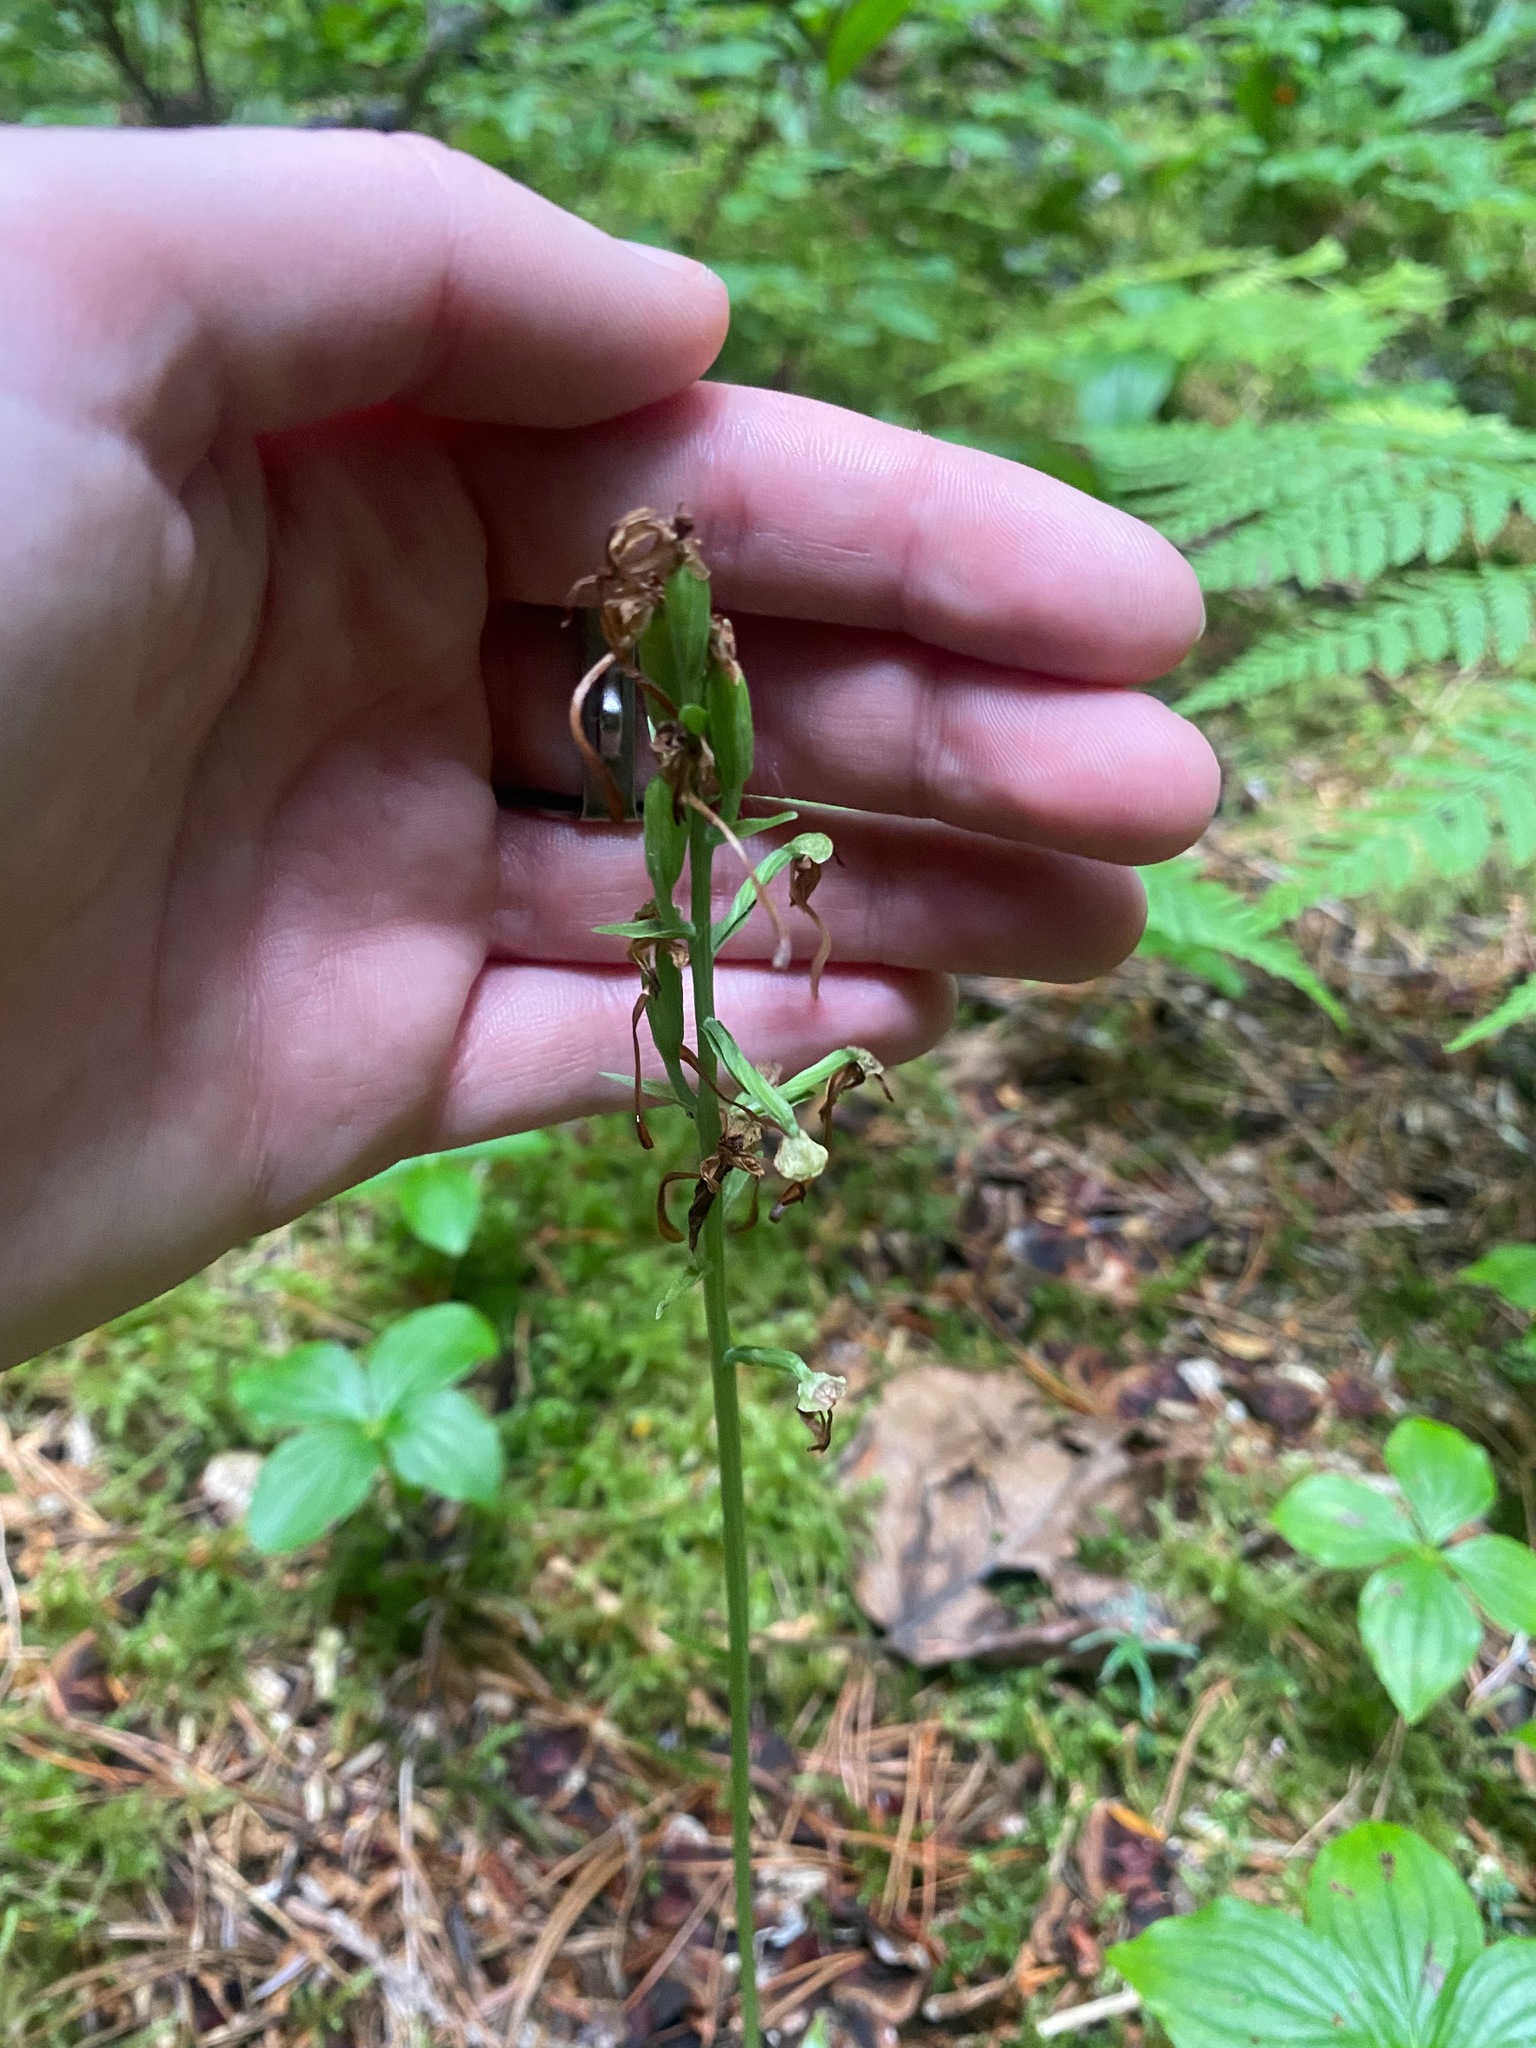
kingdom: Plantae
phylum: Tracheophyta
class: Liliopsida
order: Asparagales
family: Orchidaceae
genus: Platanthera
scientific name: Platanthera orbiculata
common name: Large round-leaved orchid
